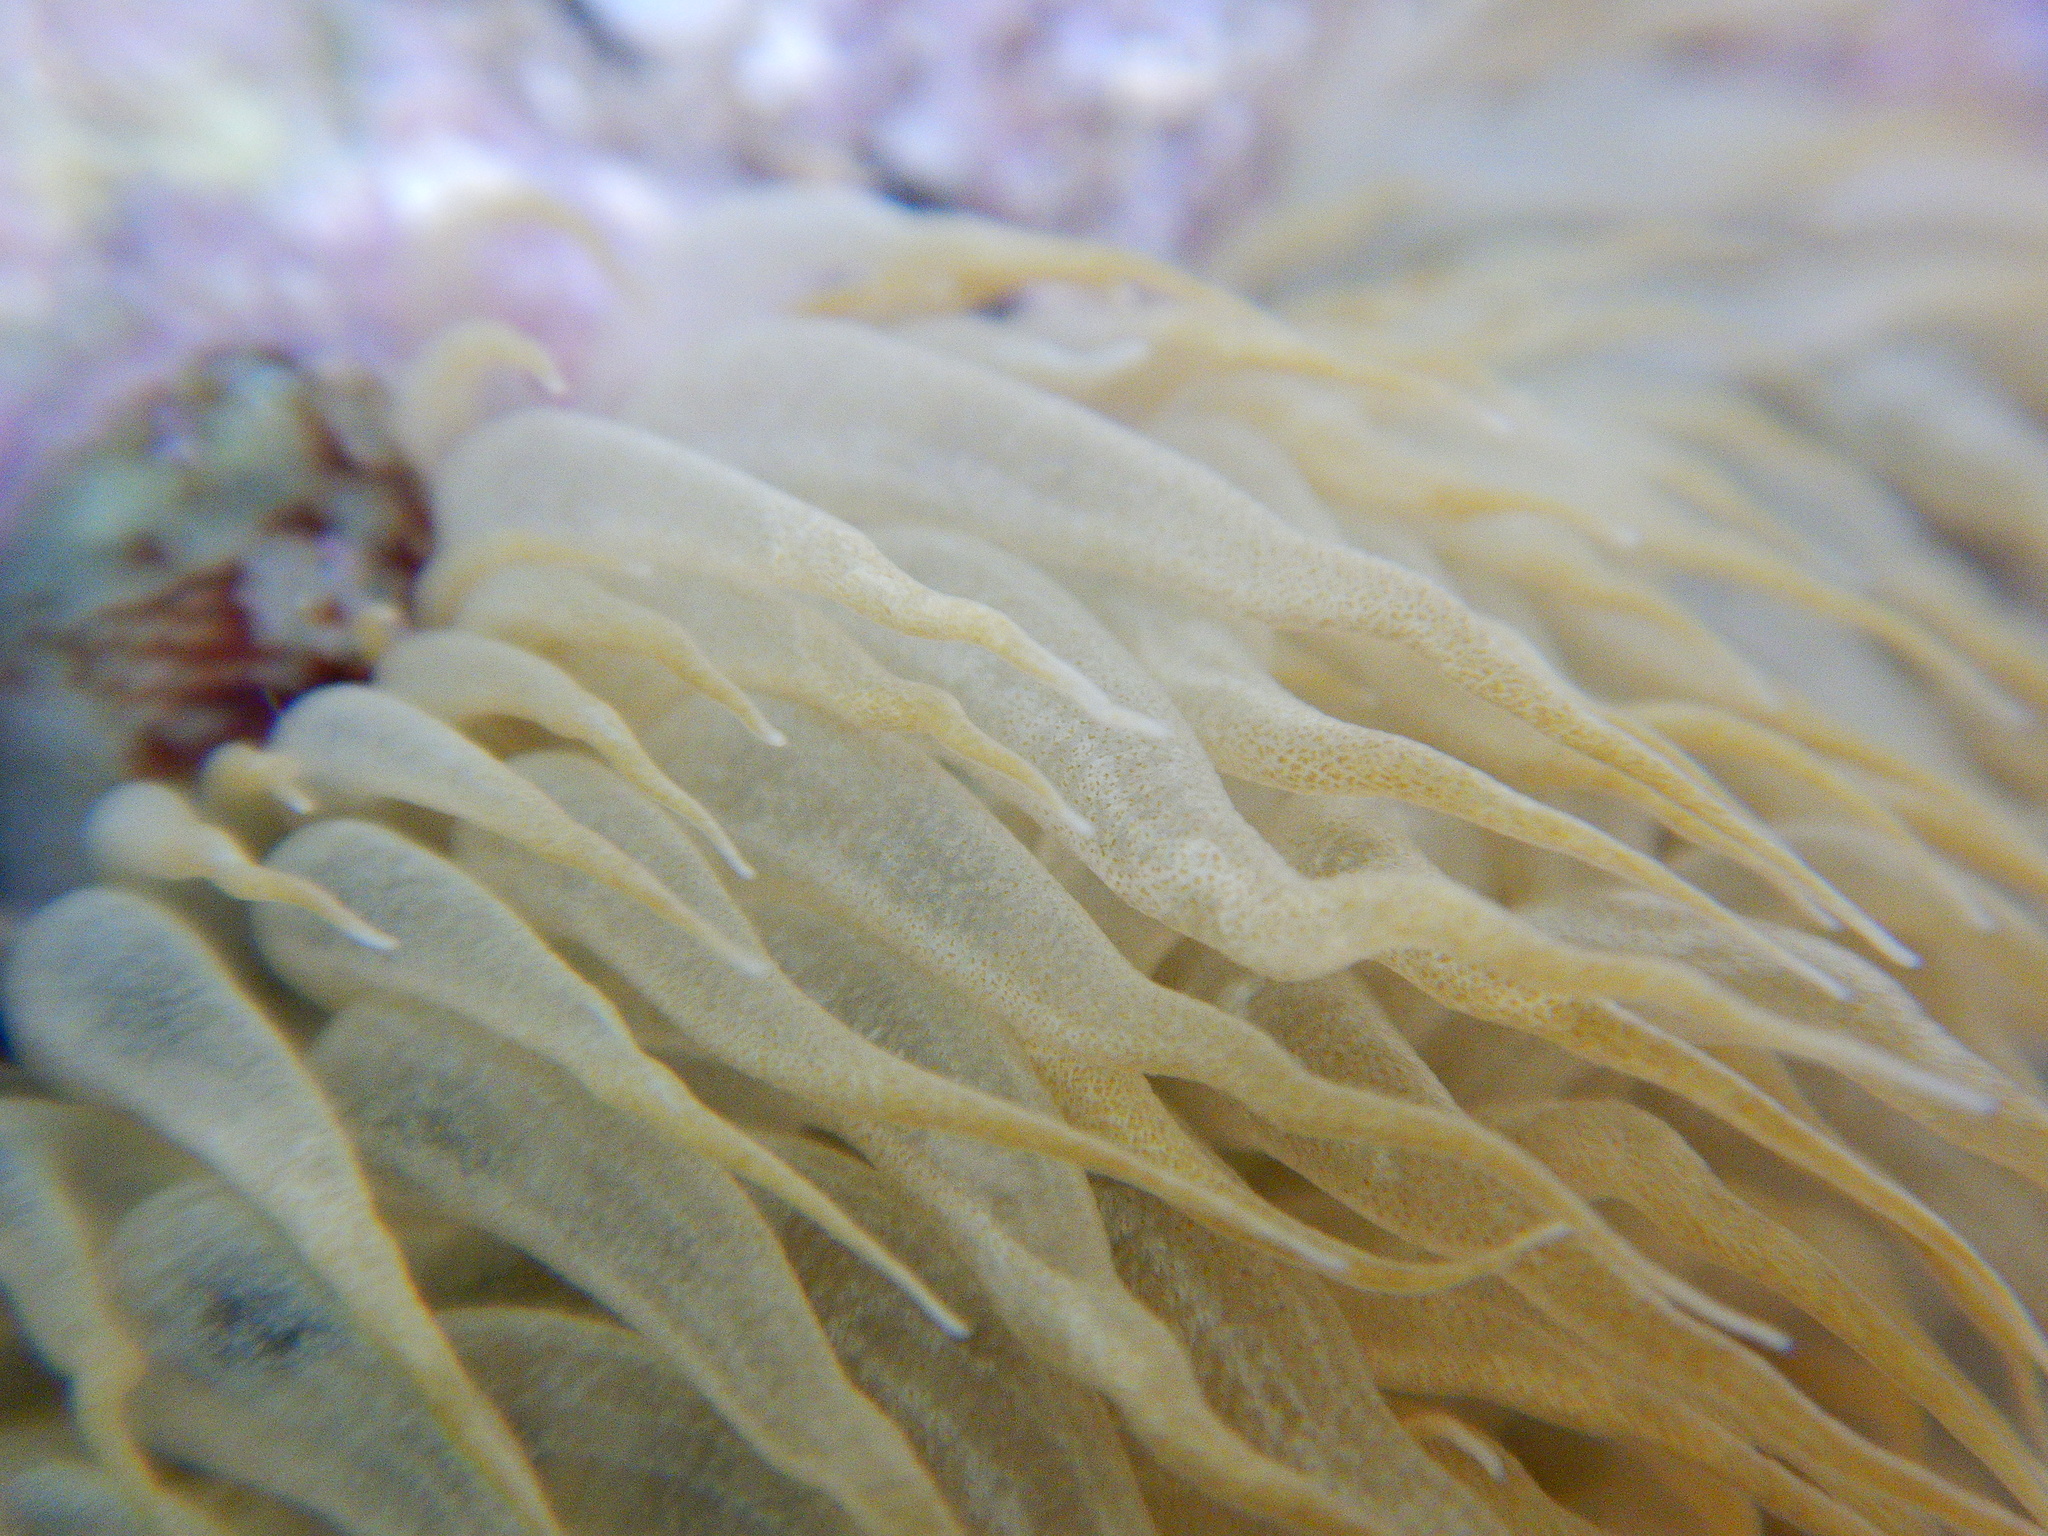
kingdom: Animalia
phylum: Cnidaria
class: Anthozoa
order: Actiniaria
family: Aiptasiidae
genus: Aiptasia
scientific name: Aiptasia mutabilis
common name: Trumpet anemone
